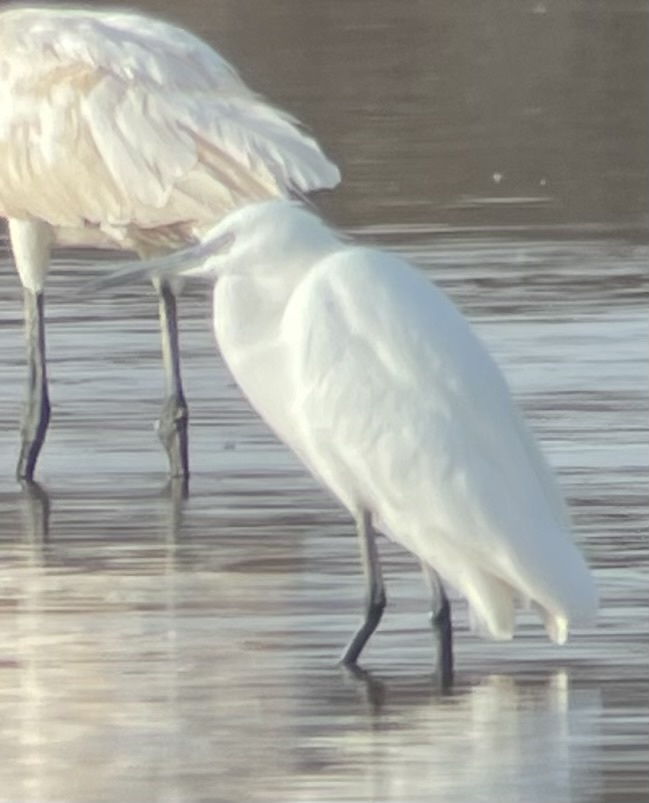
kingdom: Animalia
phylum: Chordata
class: Aves
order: Pelecaniformes
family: Ardeidae
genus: Egretta
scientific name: Egretta garzetta
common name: Little egret
